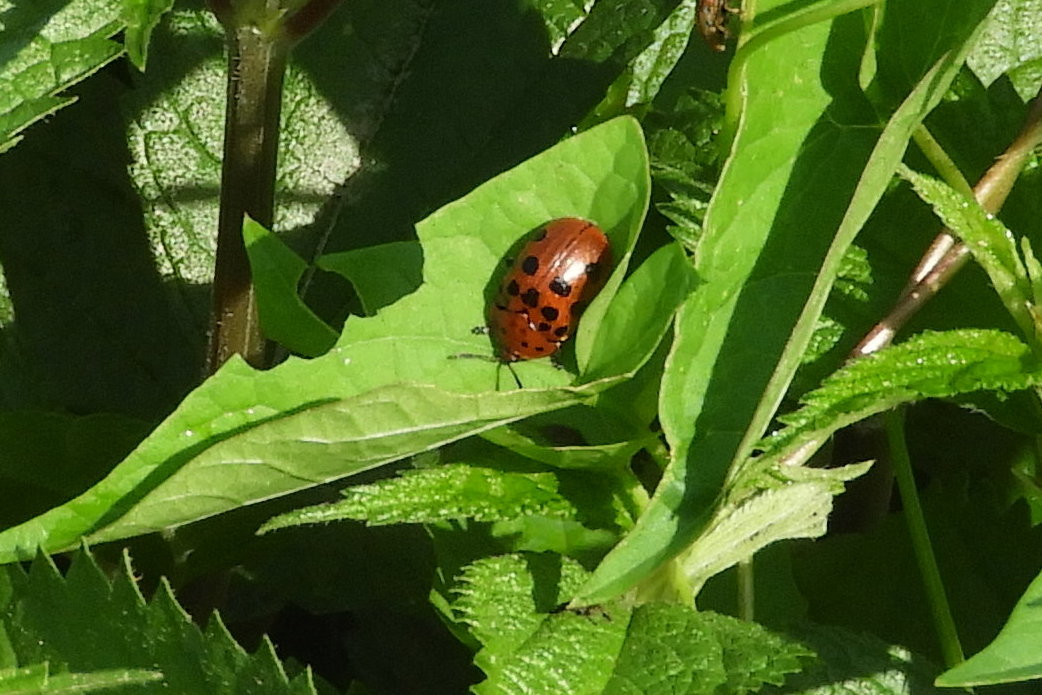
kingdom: Animalia
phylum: Arthropoda
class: Insecta
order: Coleoptera
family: Chrysomelidae
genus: Chelymorpha
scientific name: Chelymorpha cassidea
